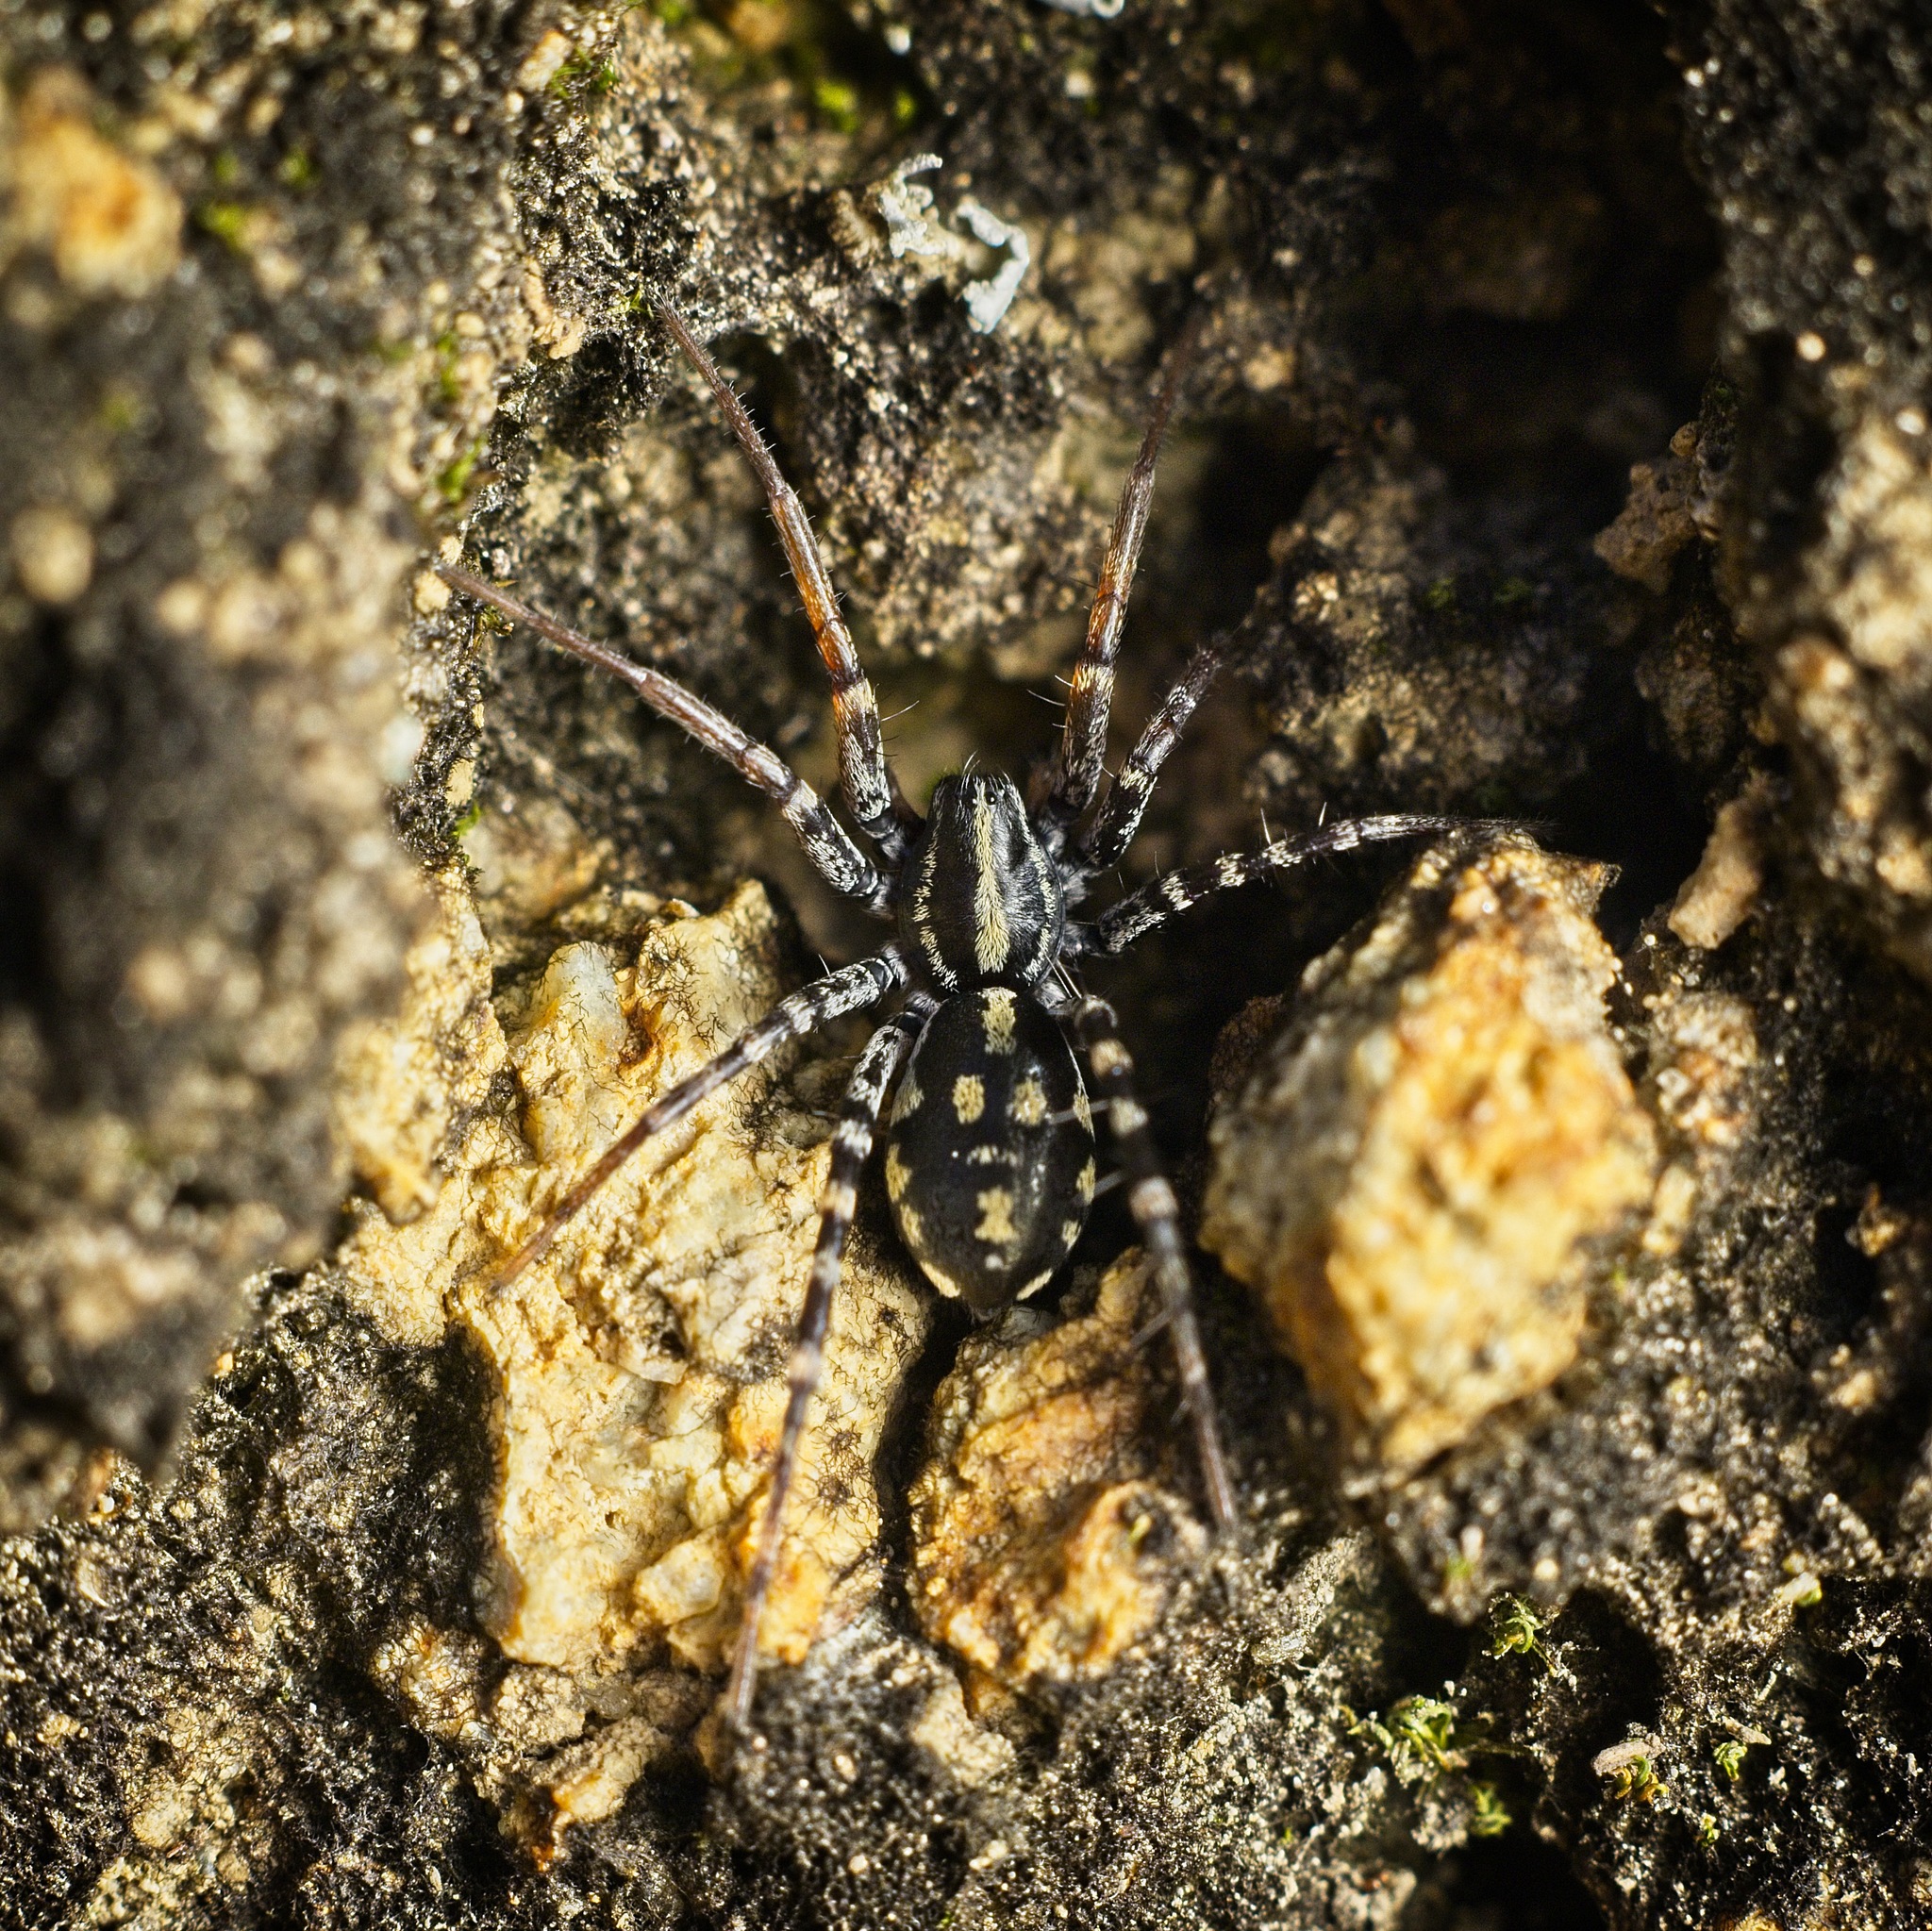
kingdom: Animalia
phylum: Arthropoda
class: Arachnida
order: Araneae
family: Corinnidae
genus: Nyssus
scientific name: Nyssus coloripes
